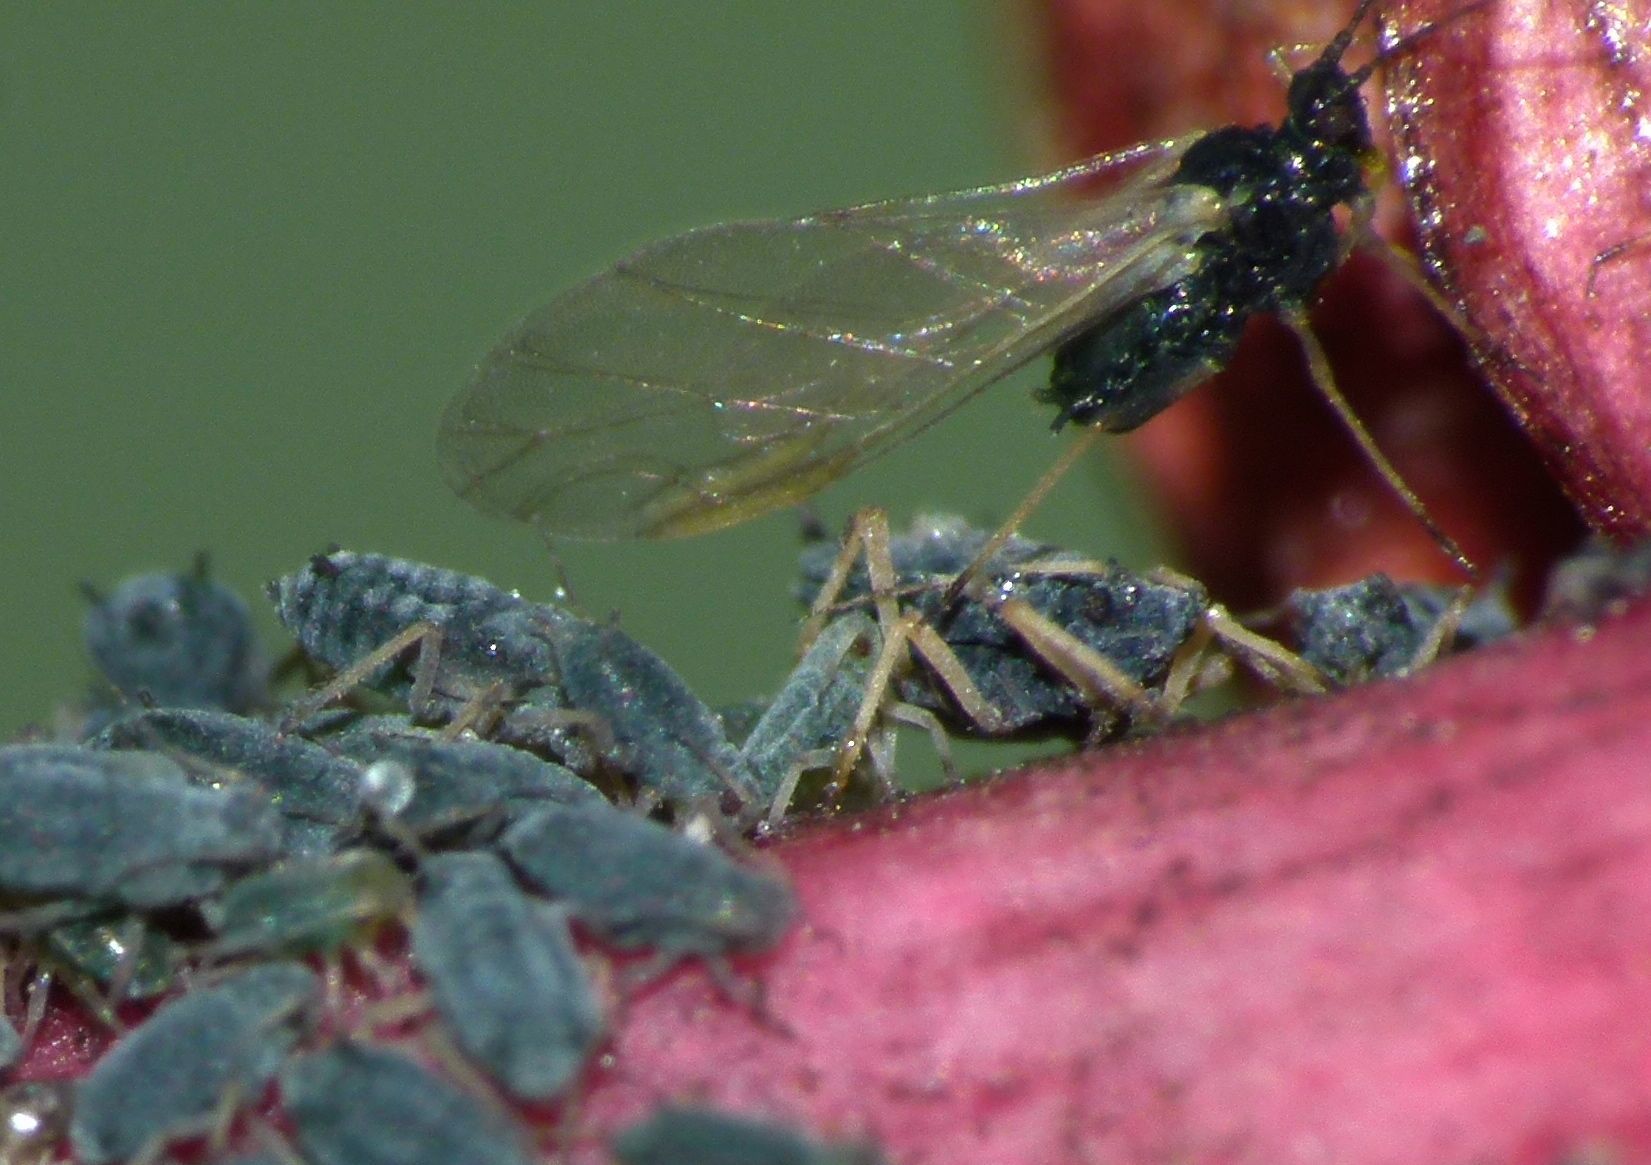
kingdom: Animalia
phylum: Arthropoda
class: Insecta
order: Hemiptera
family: Aphididae
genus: Aphis
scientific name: Aphis sedi
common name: Cactus aphid
